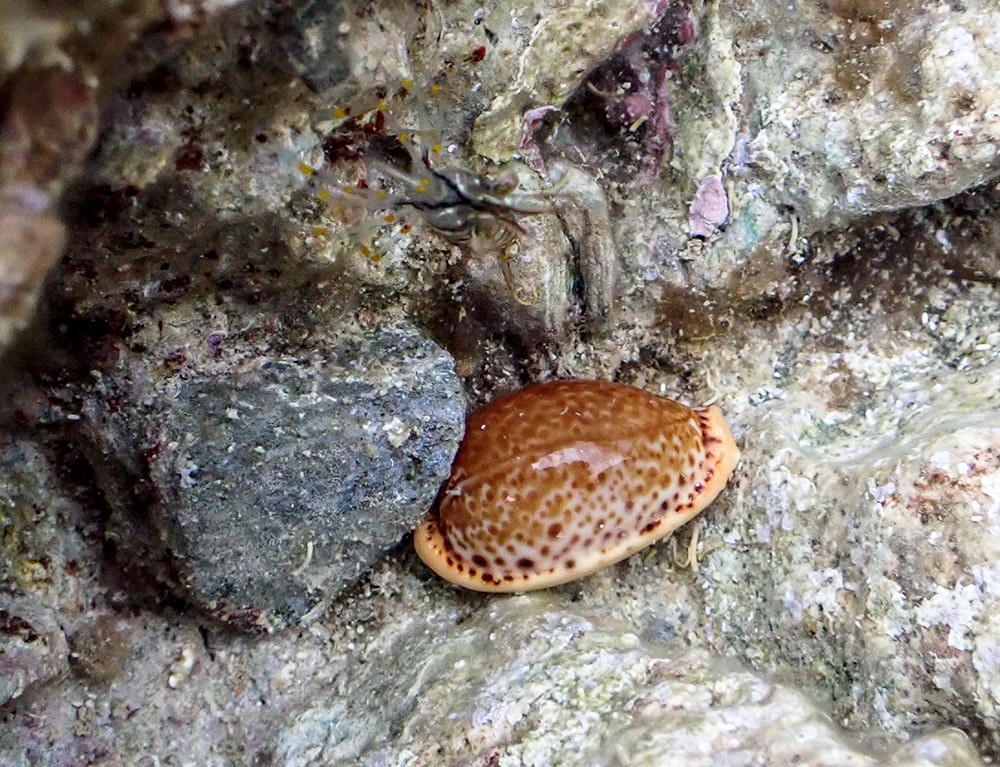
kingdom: Animalia
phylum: Mollusca
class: Gastropoda
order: Littorinimorpha
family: Cypraeidae
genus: Naria
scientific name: Naria spurca
